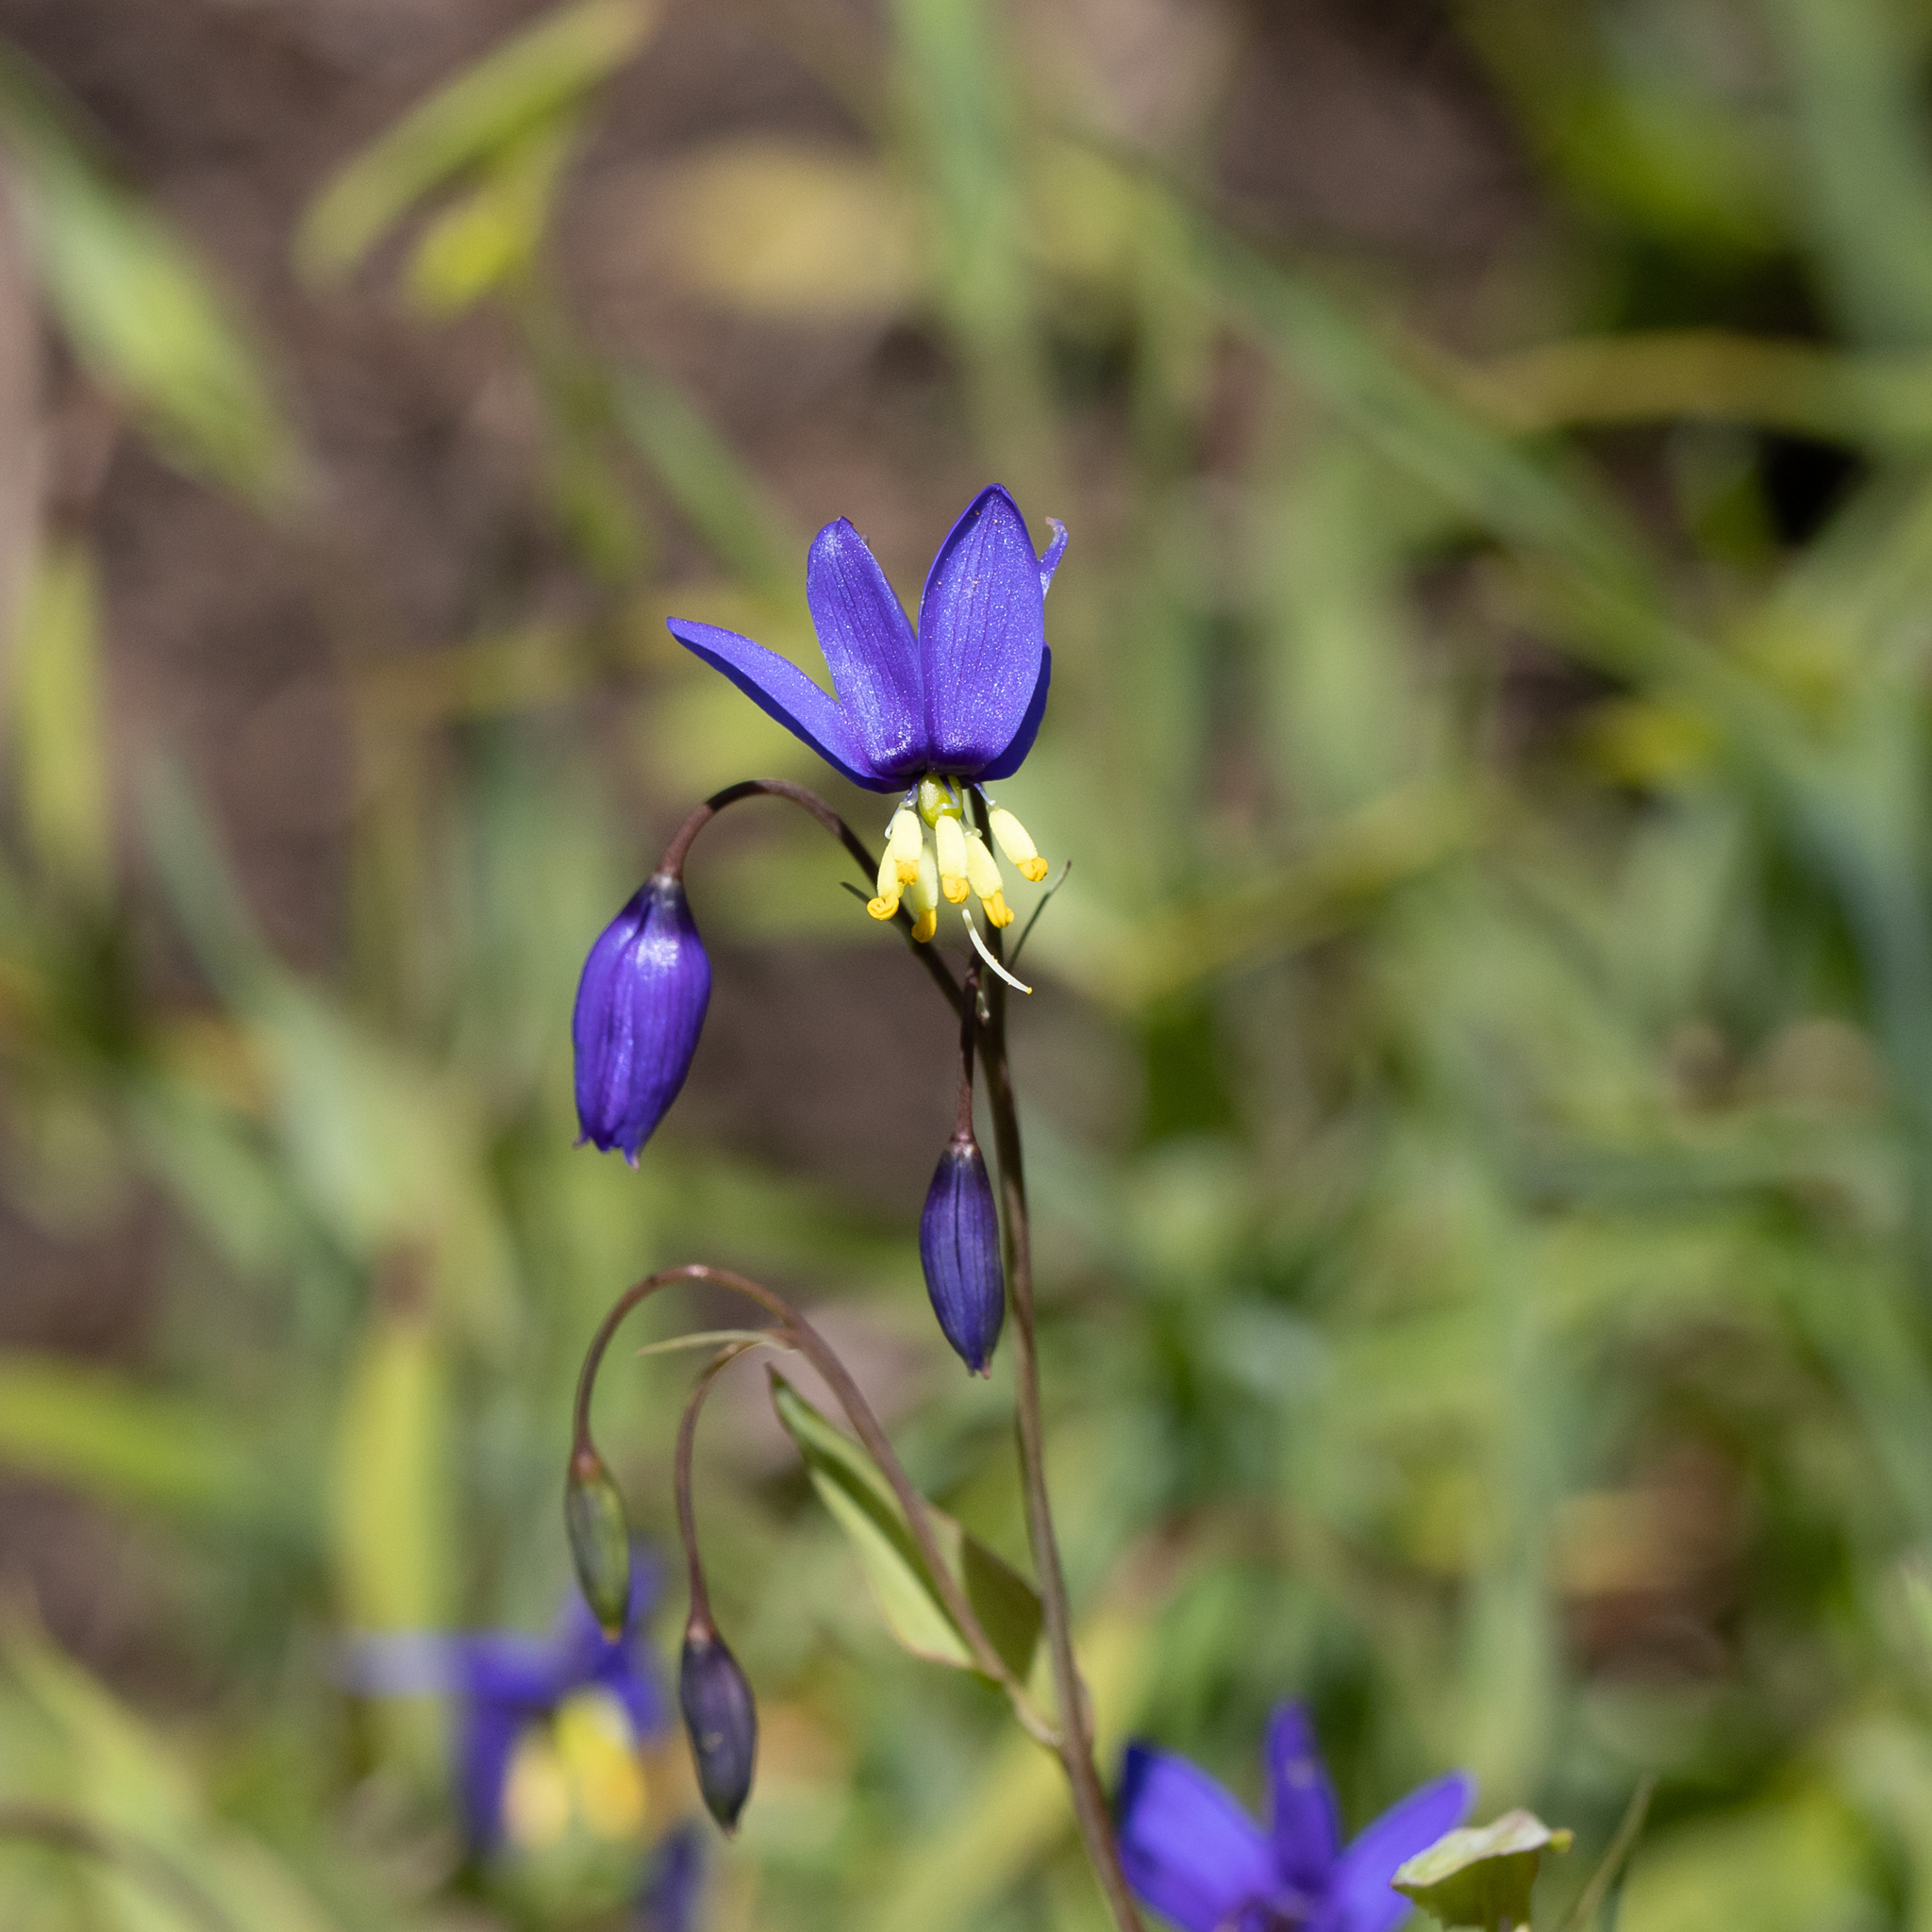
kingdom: Plantae
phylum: Tracheophyta
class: Liliopsida
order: Asparagales
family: Asphodelaceae
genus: Stypandra
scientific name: Stypandra glauca
